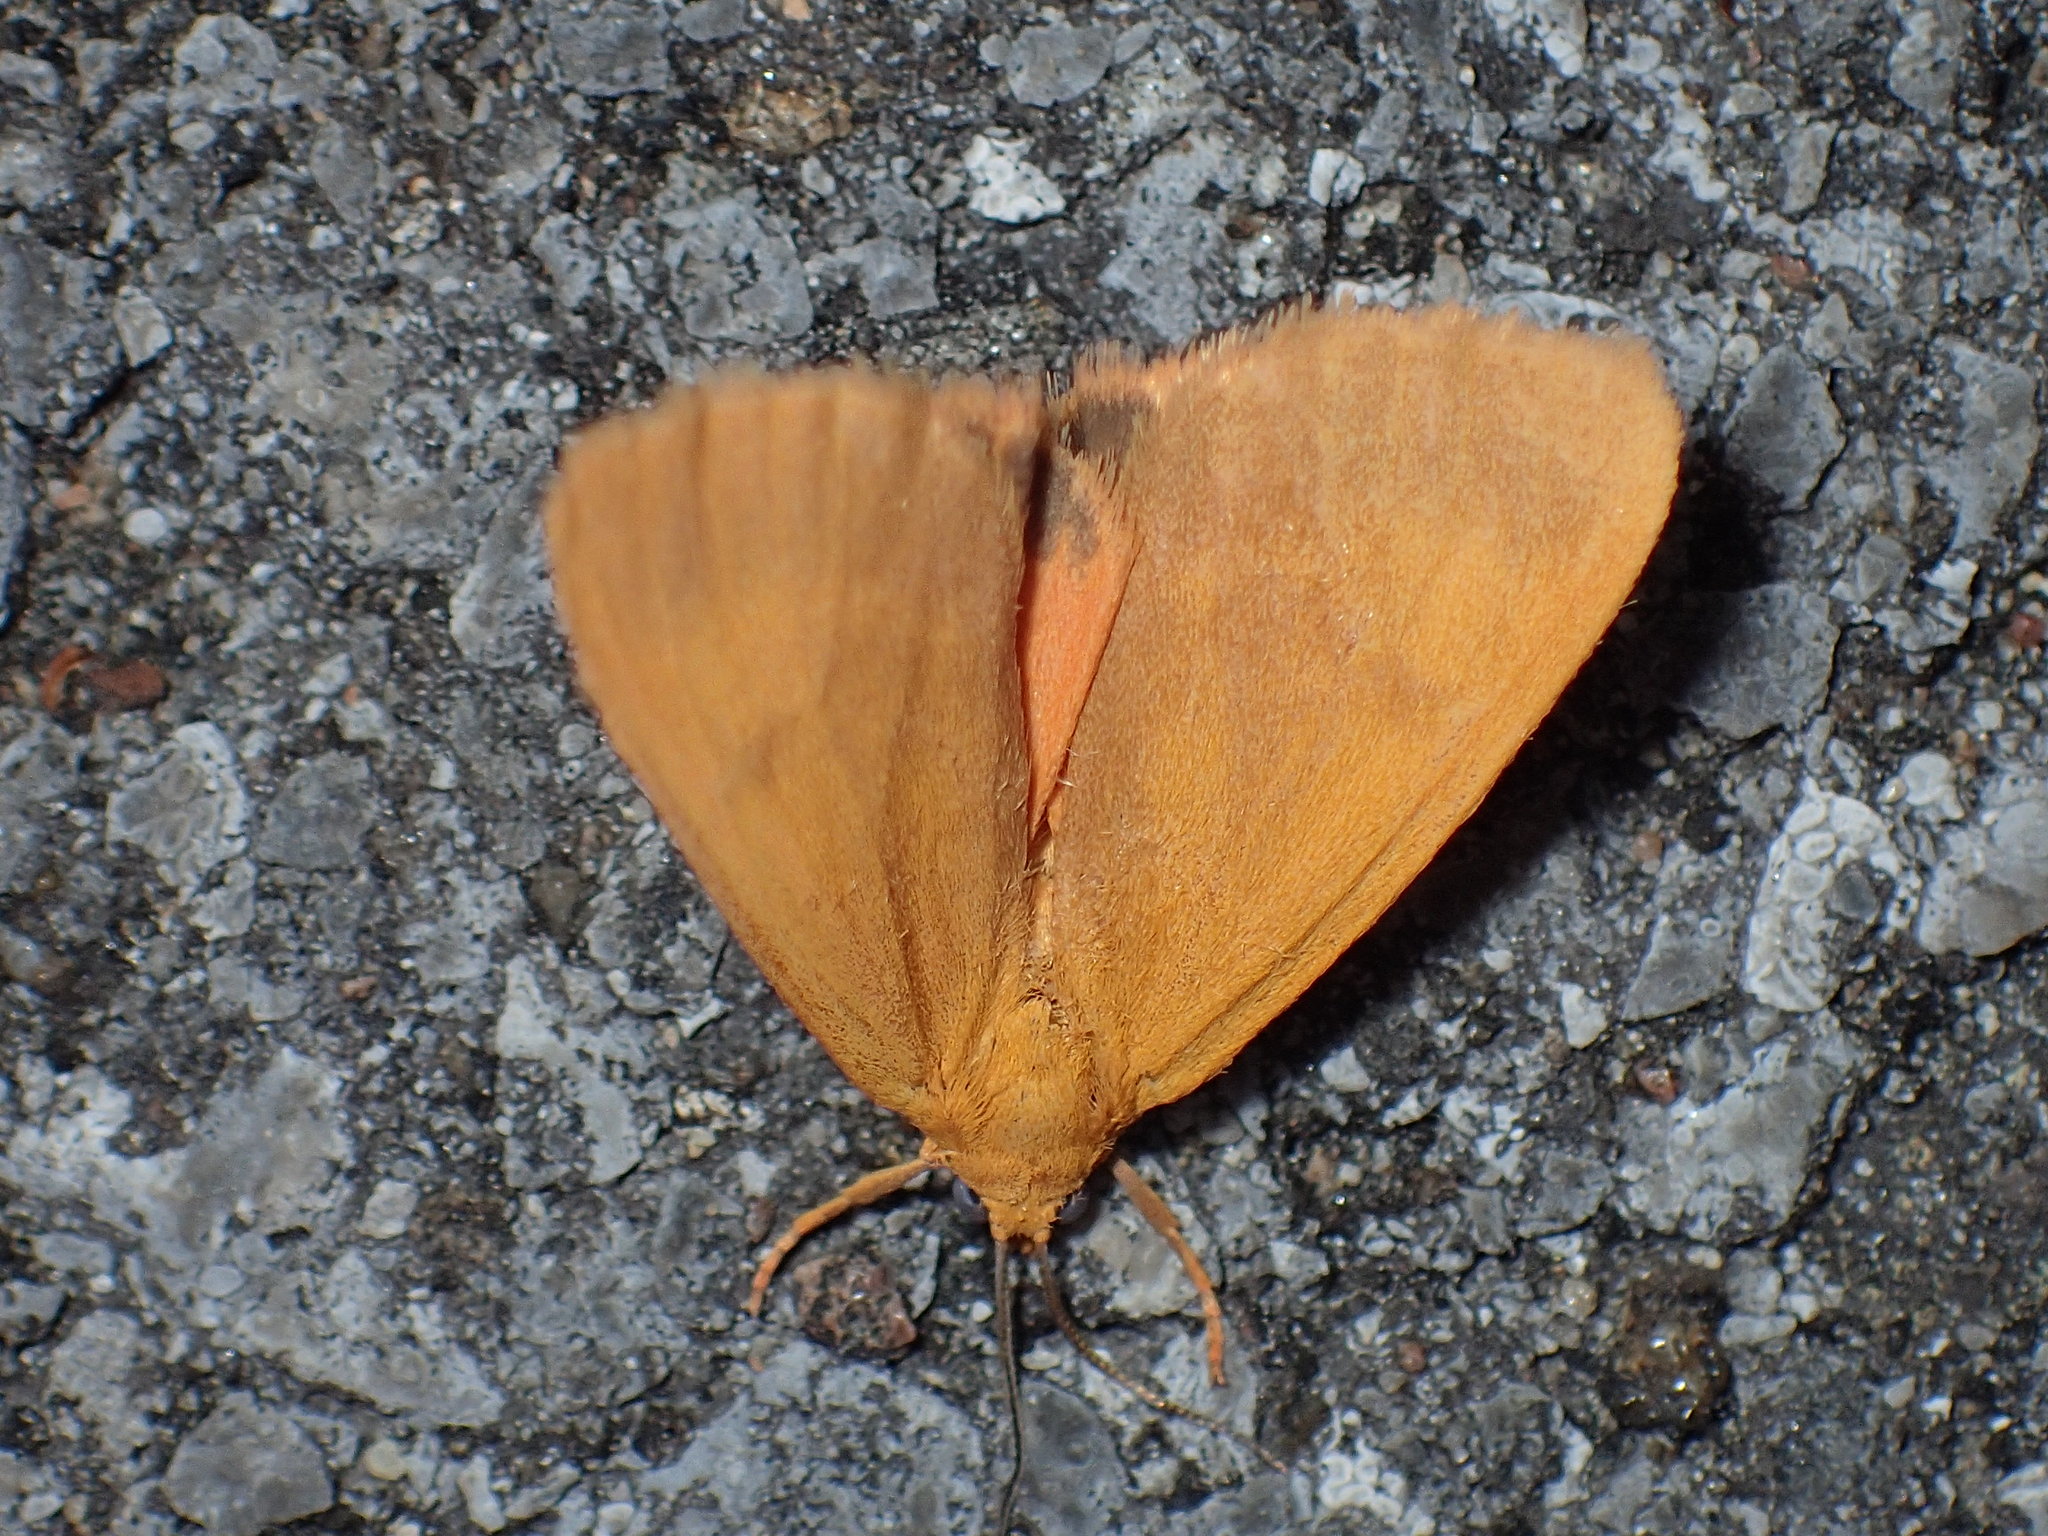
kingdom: Animalia
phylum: Arthropoda
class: Insecta
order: Lepidoptera
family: Erebidae
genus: Virbia
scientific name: Virbia aurantiaca
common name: Orange virbia moth
